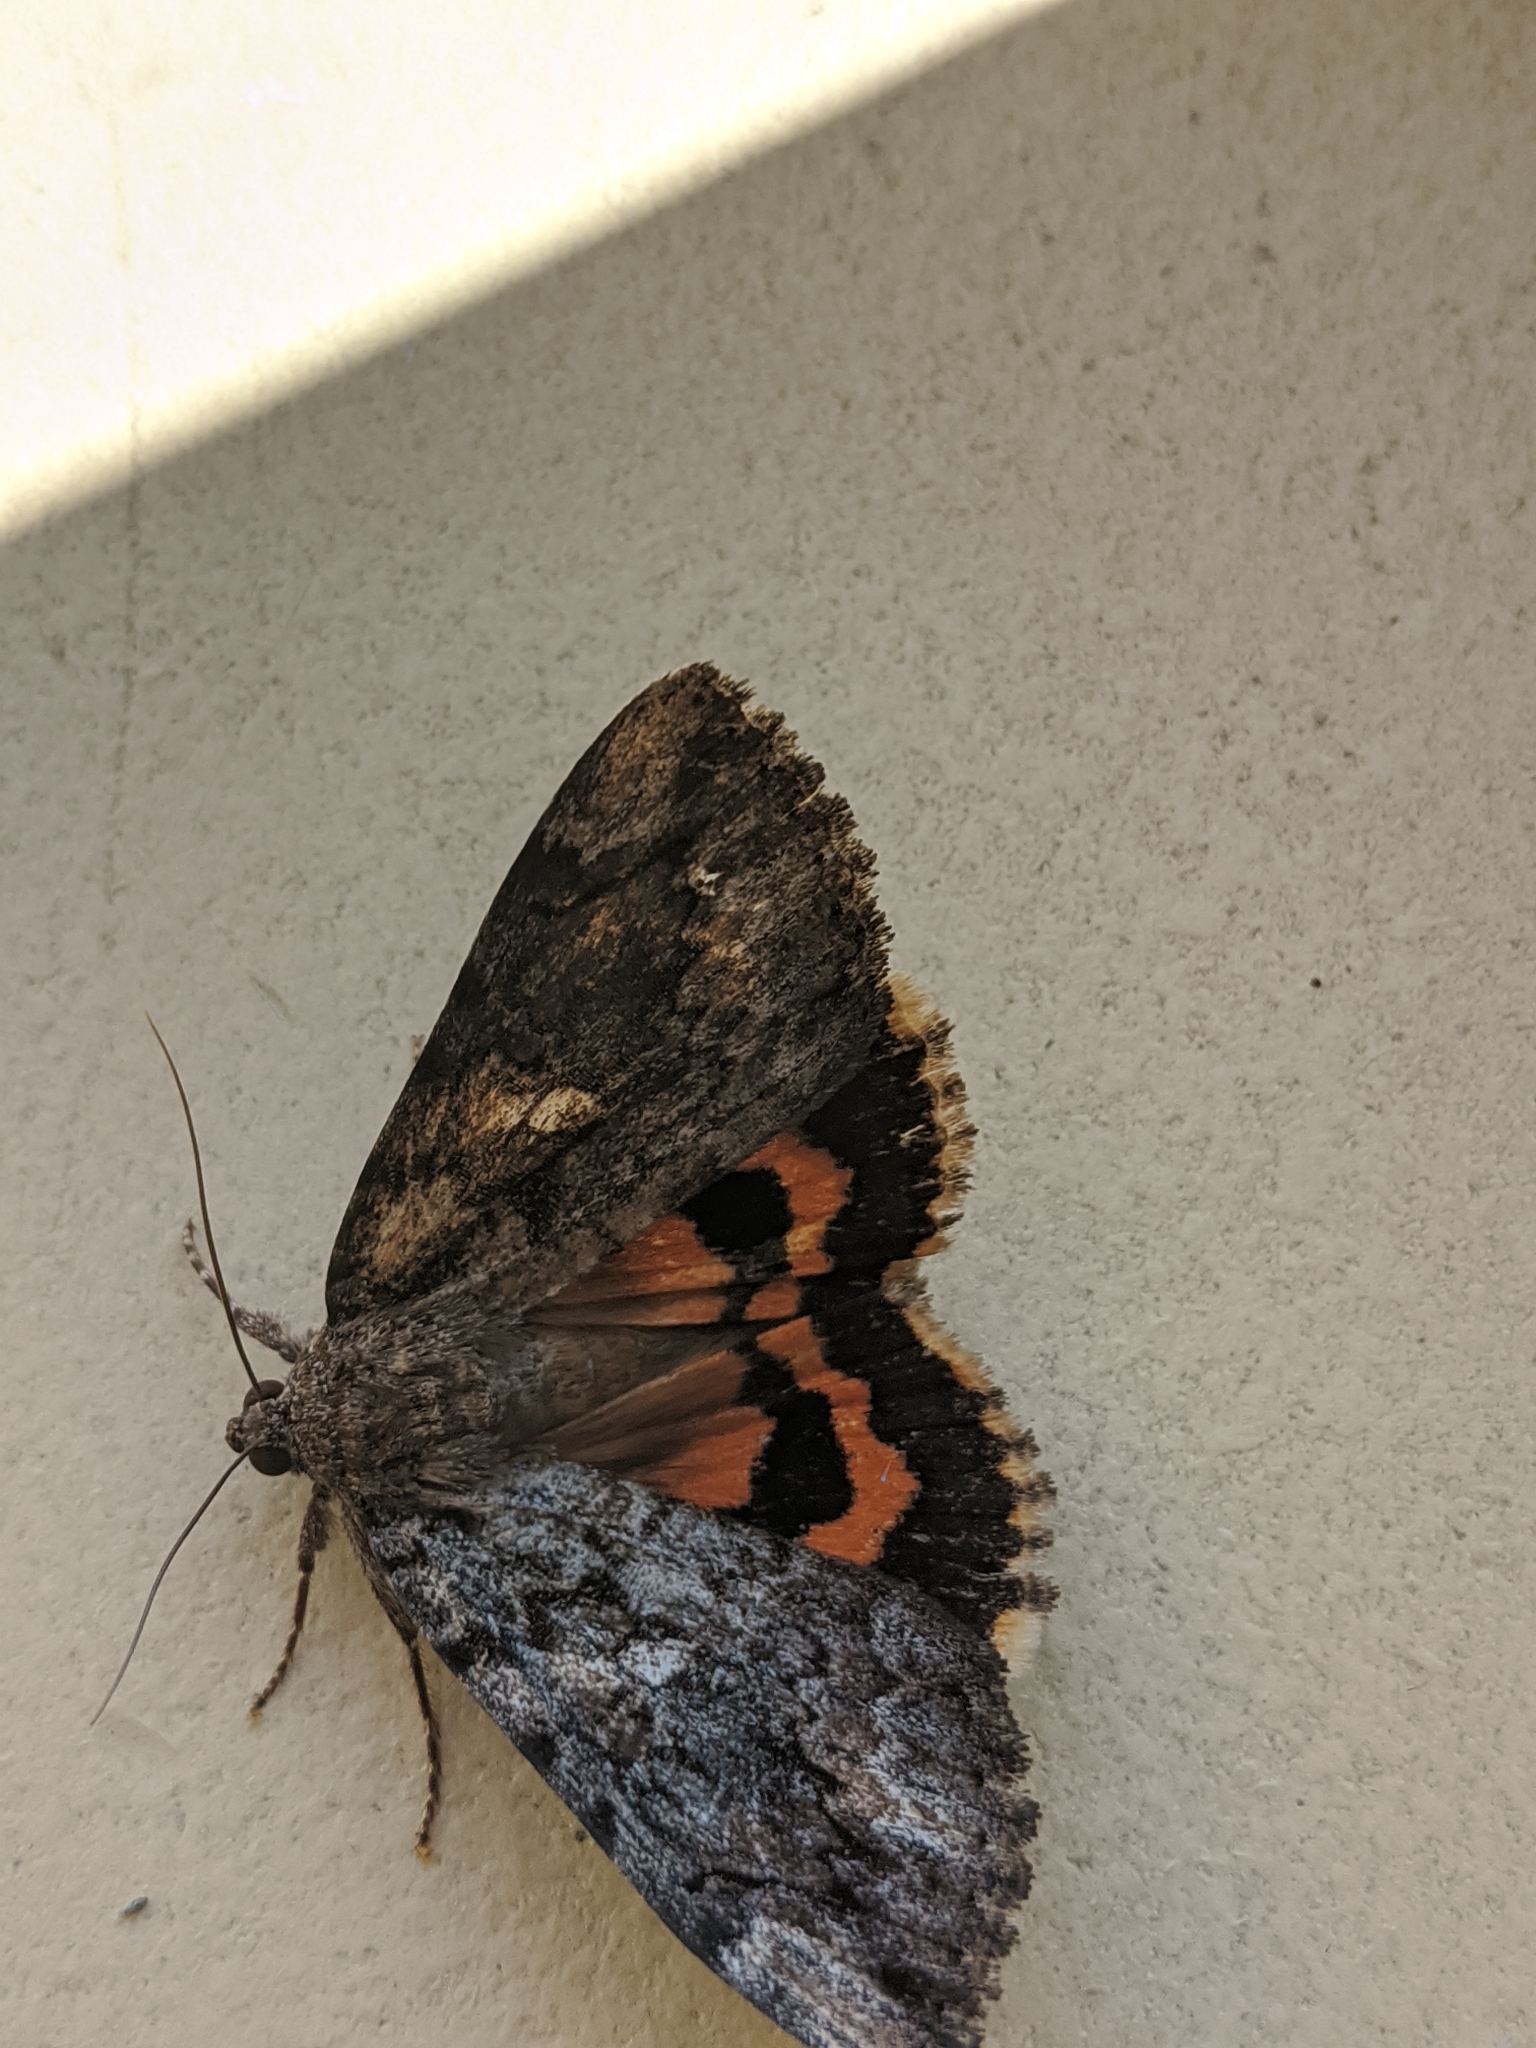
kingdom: Animalia
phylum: Arthropoda
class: Insecta
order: Lepidoptera
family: Erebidae
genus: Catocala
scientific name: Catocala innubens
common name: Betrothed underwing
